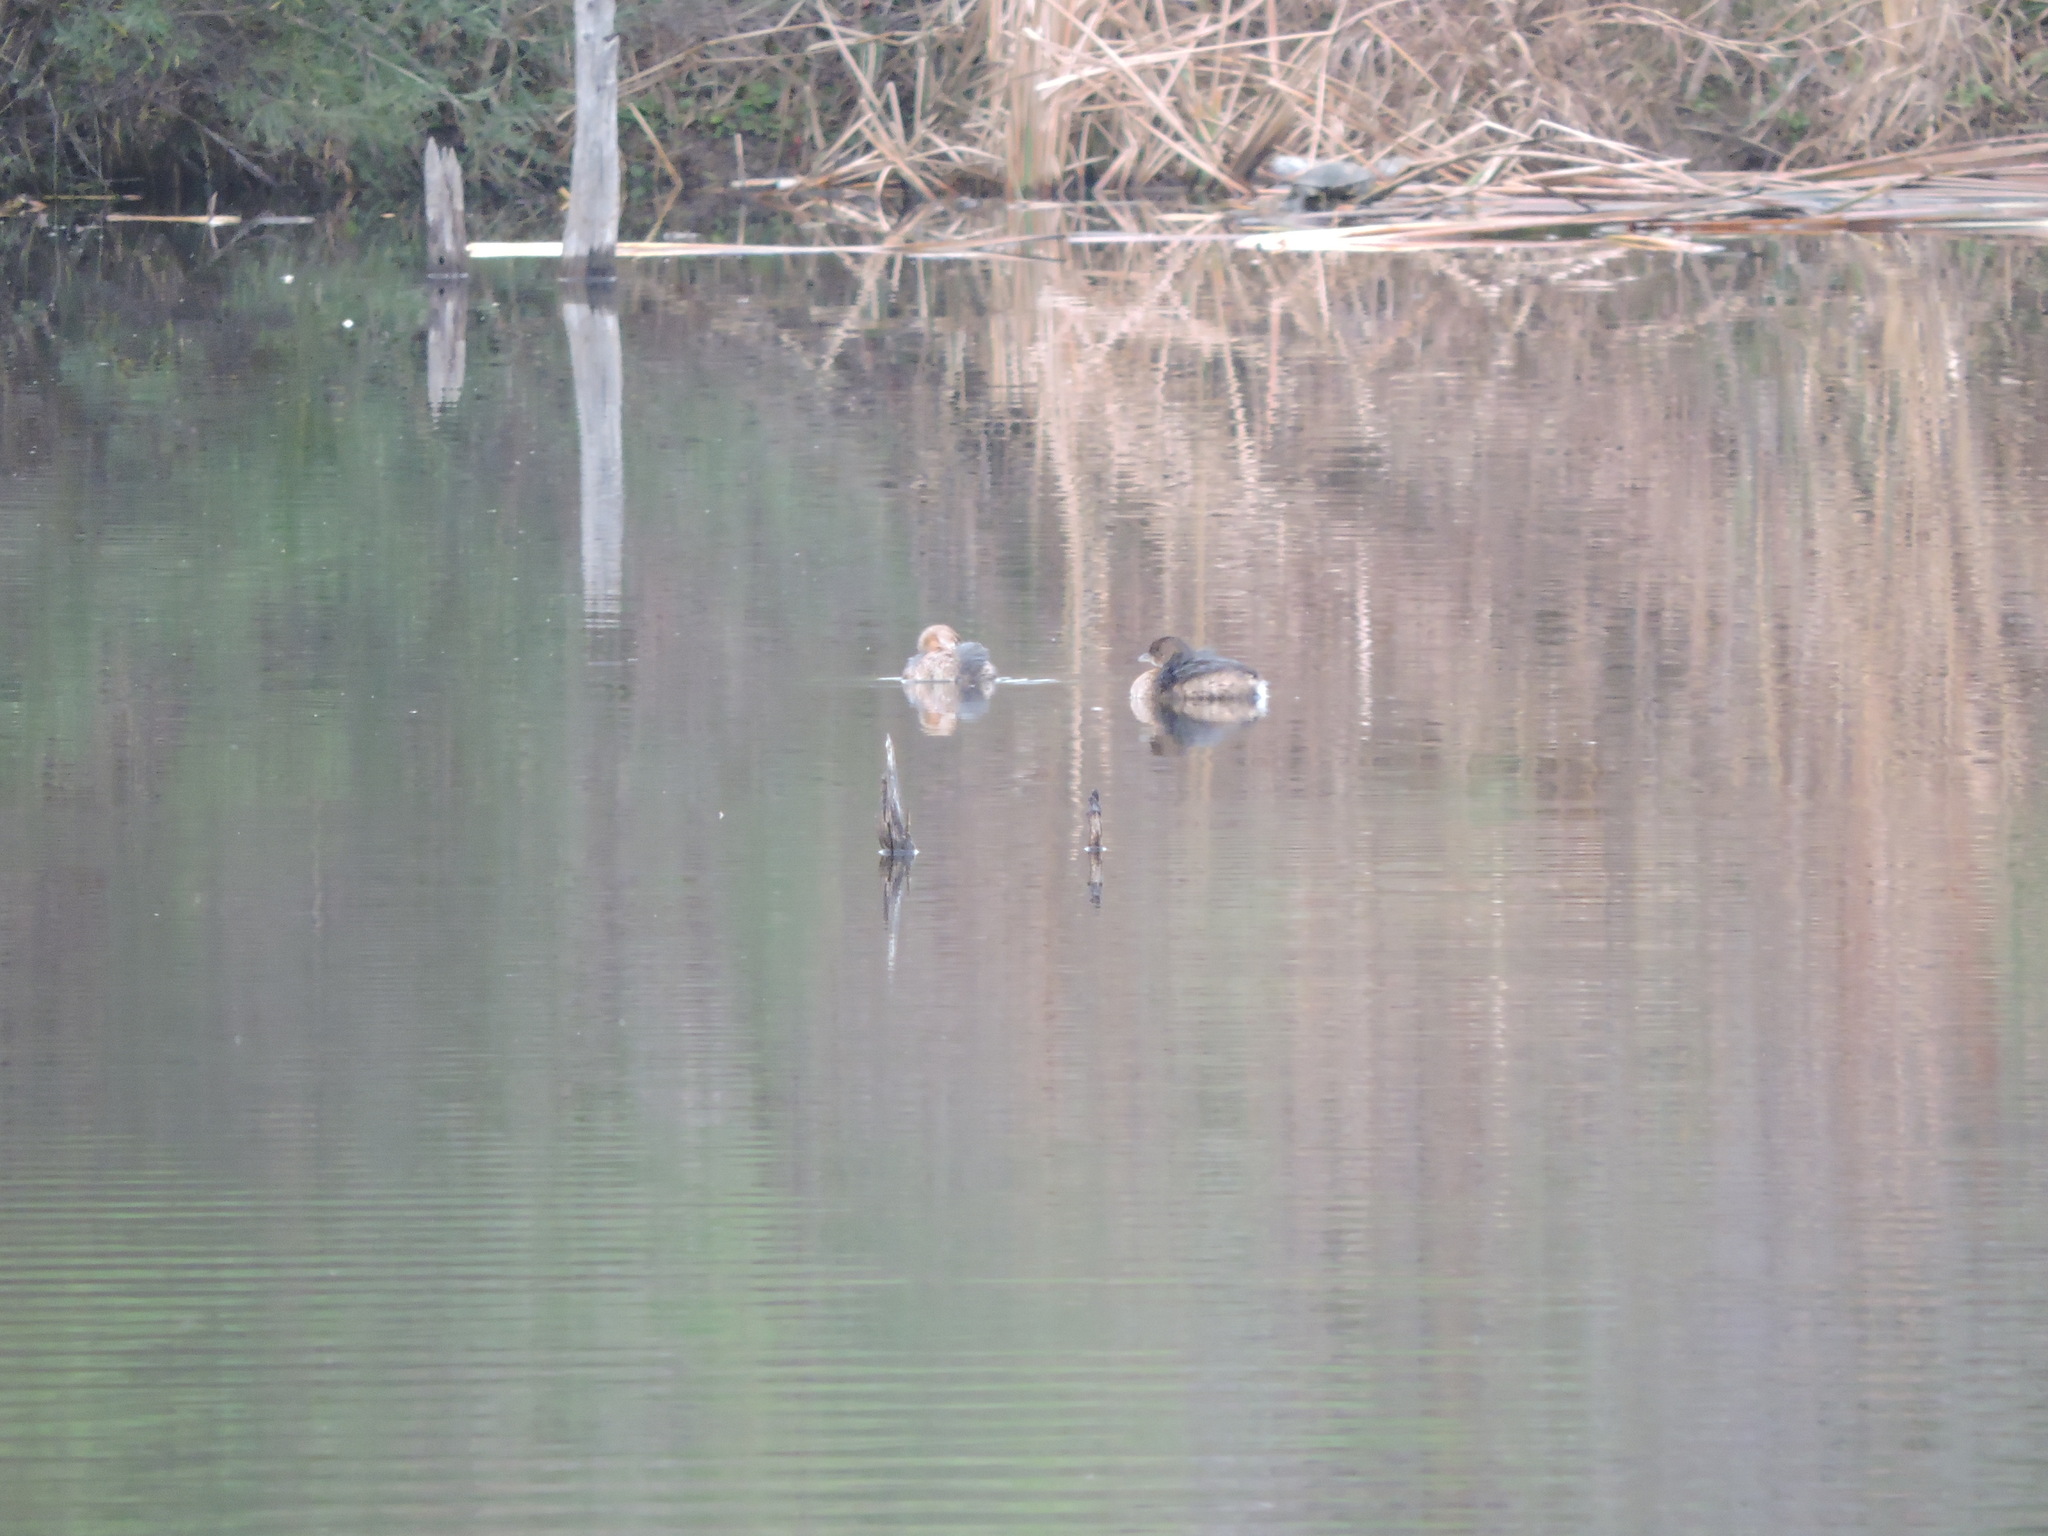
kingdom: Animalia
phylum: Chordata
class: Aves
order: Podicipediformes
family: Podicipedidae
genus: Podilymbus
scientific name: Podilymbus podiceps
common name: Pied-billed grebe
